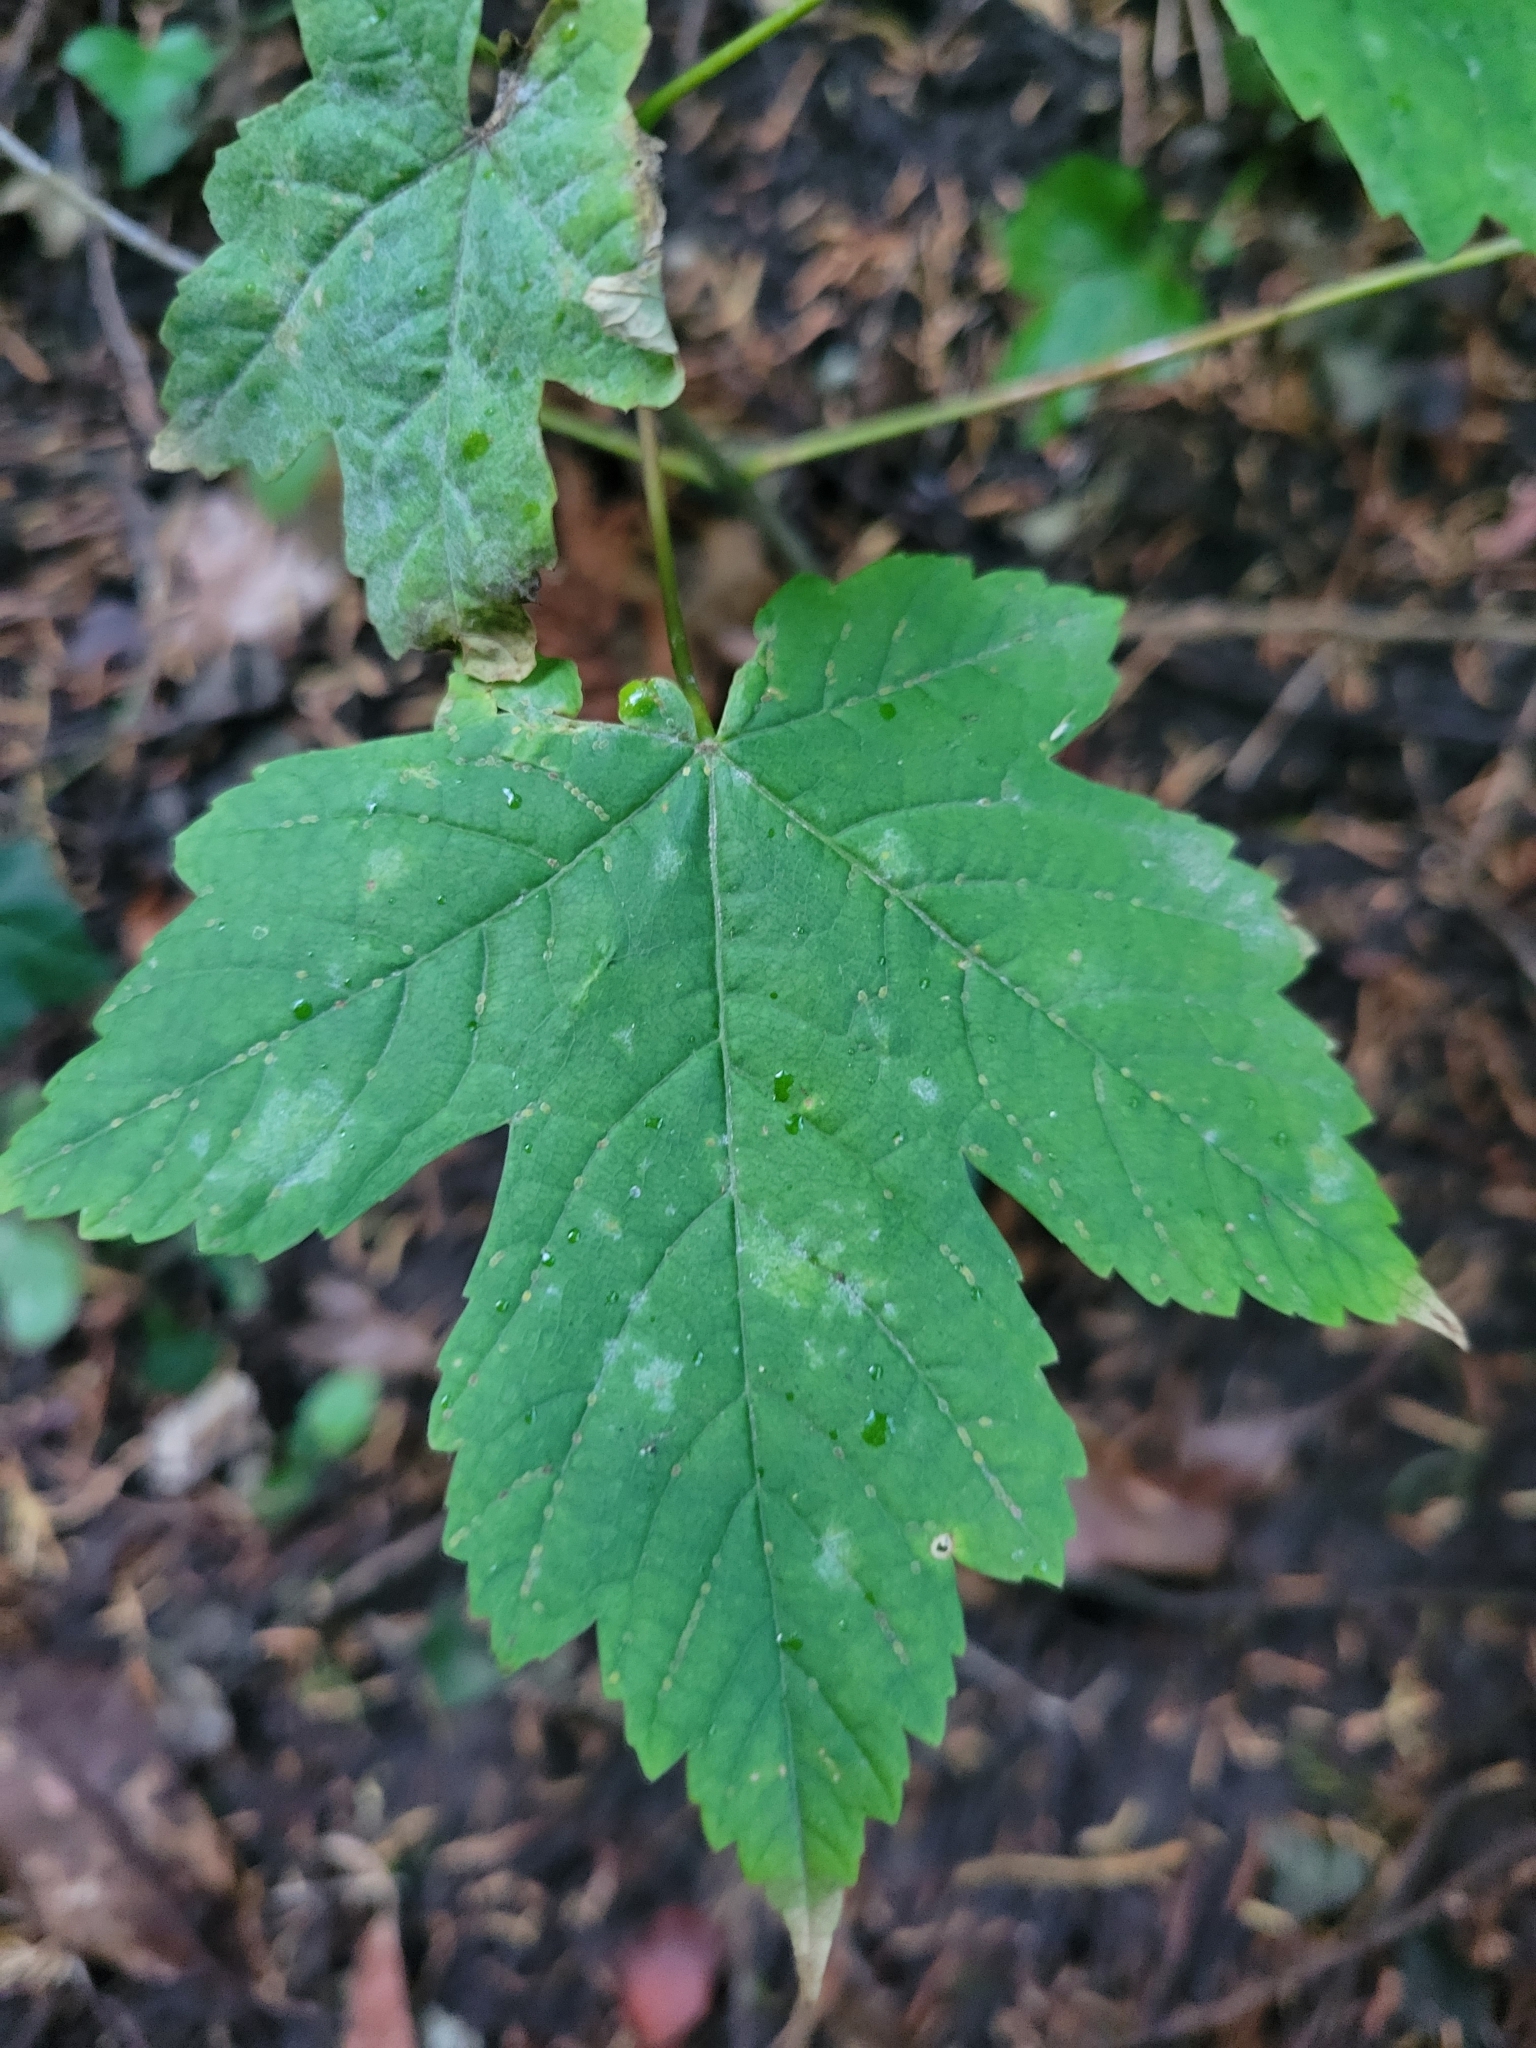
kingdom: Plantae
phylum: Tracheophyta
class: Magnoliopsida
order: Sapindales
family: Sapindaceae
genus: Acer
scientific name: Acer pseudoplatanus
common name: Sycamore
